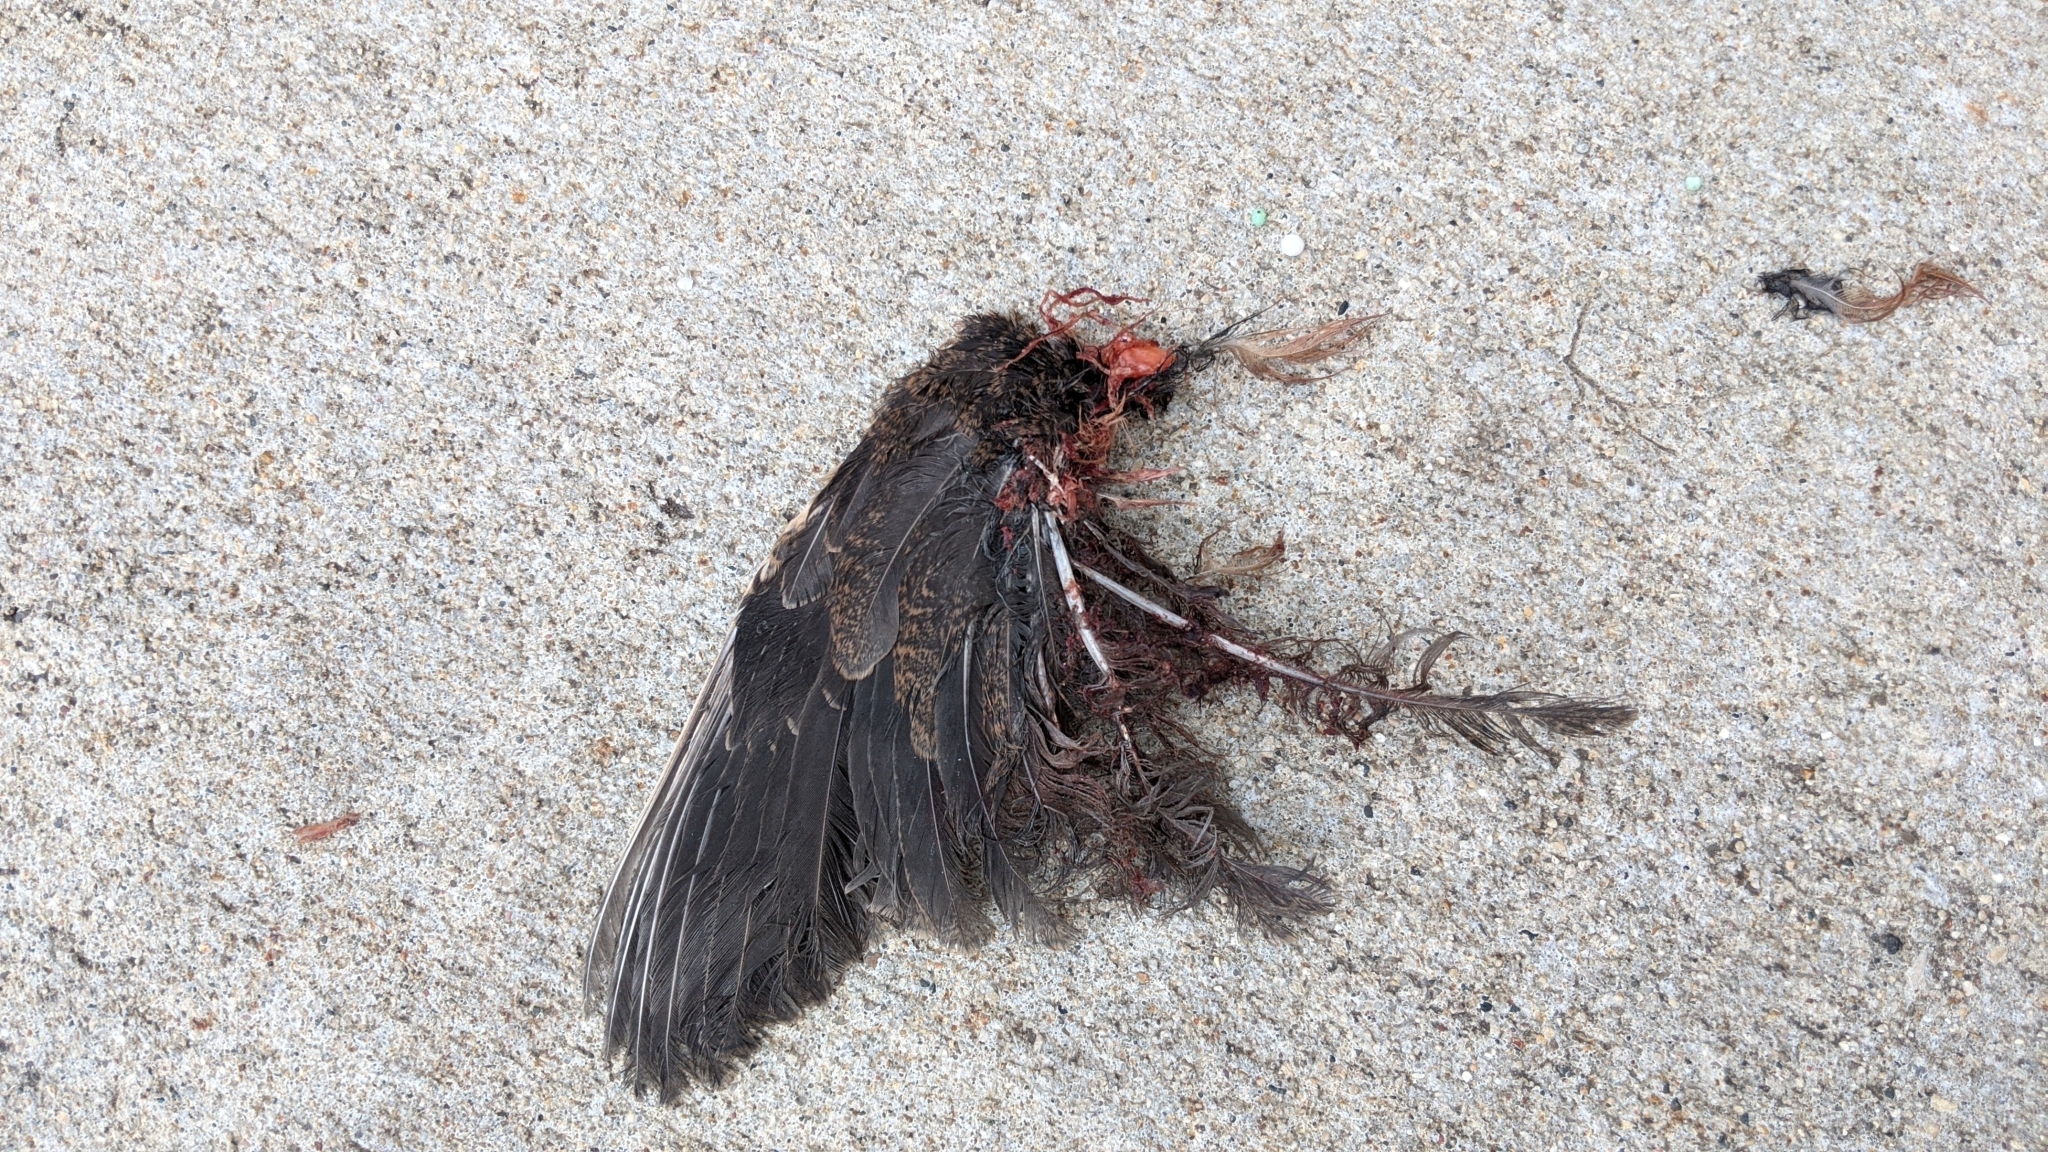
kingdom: Animalia
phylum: Chordata
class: Aves
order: Charadriiformes
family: Scolopacidae
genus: Scolopax
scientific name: Scolopax minor
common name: American woodcock
